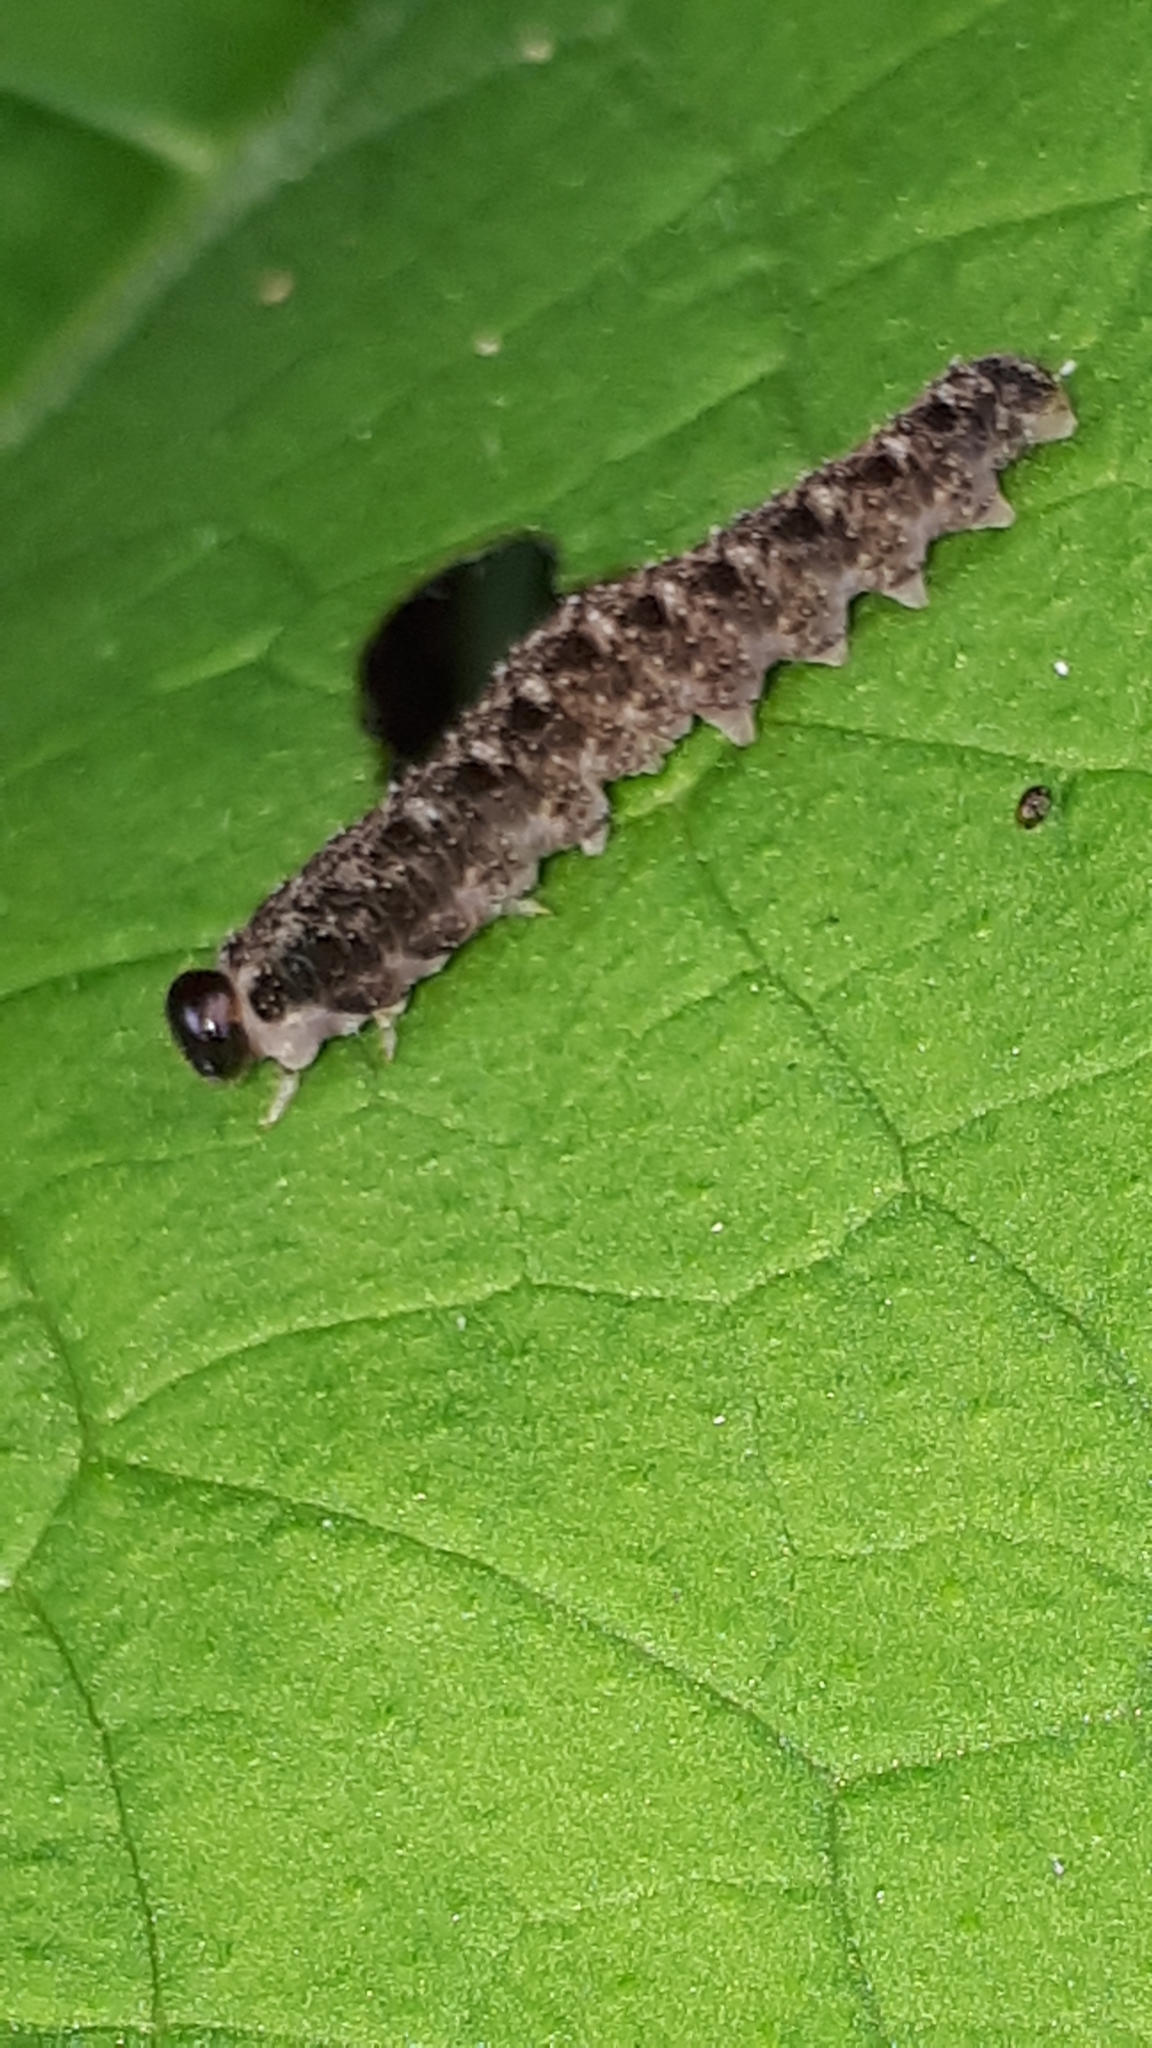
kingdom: Animalia
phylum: Arthropoda
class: Insecta
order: Hymenoptera
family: Tenthredinidae
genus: Tenthredo
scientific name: Tenthredo bipunctula
